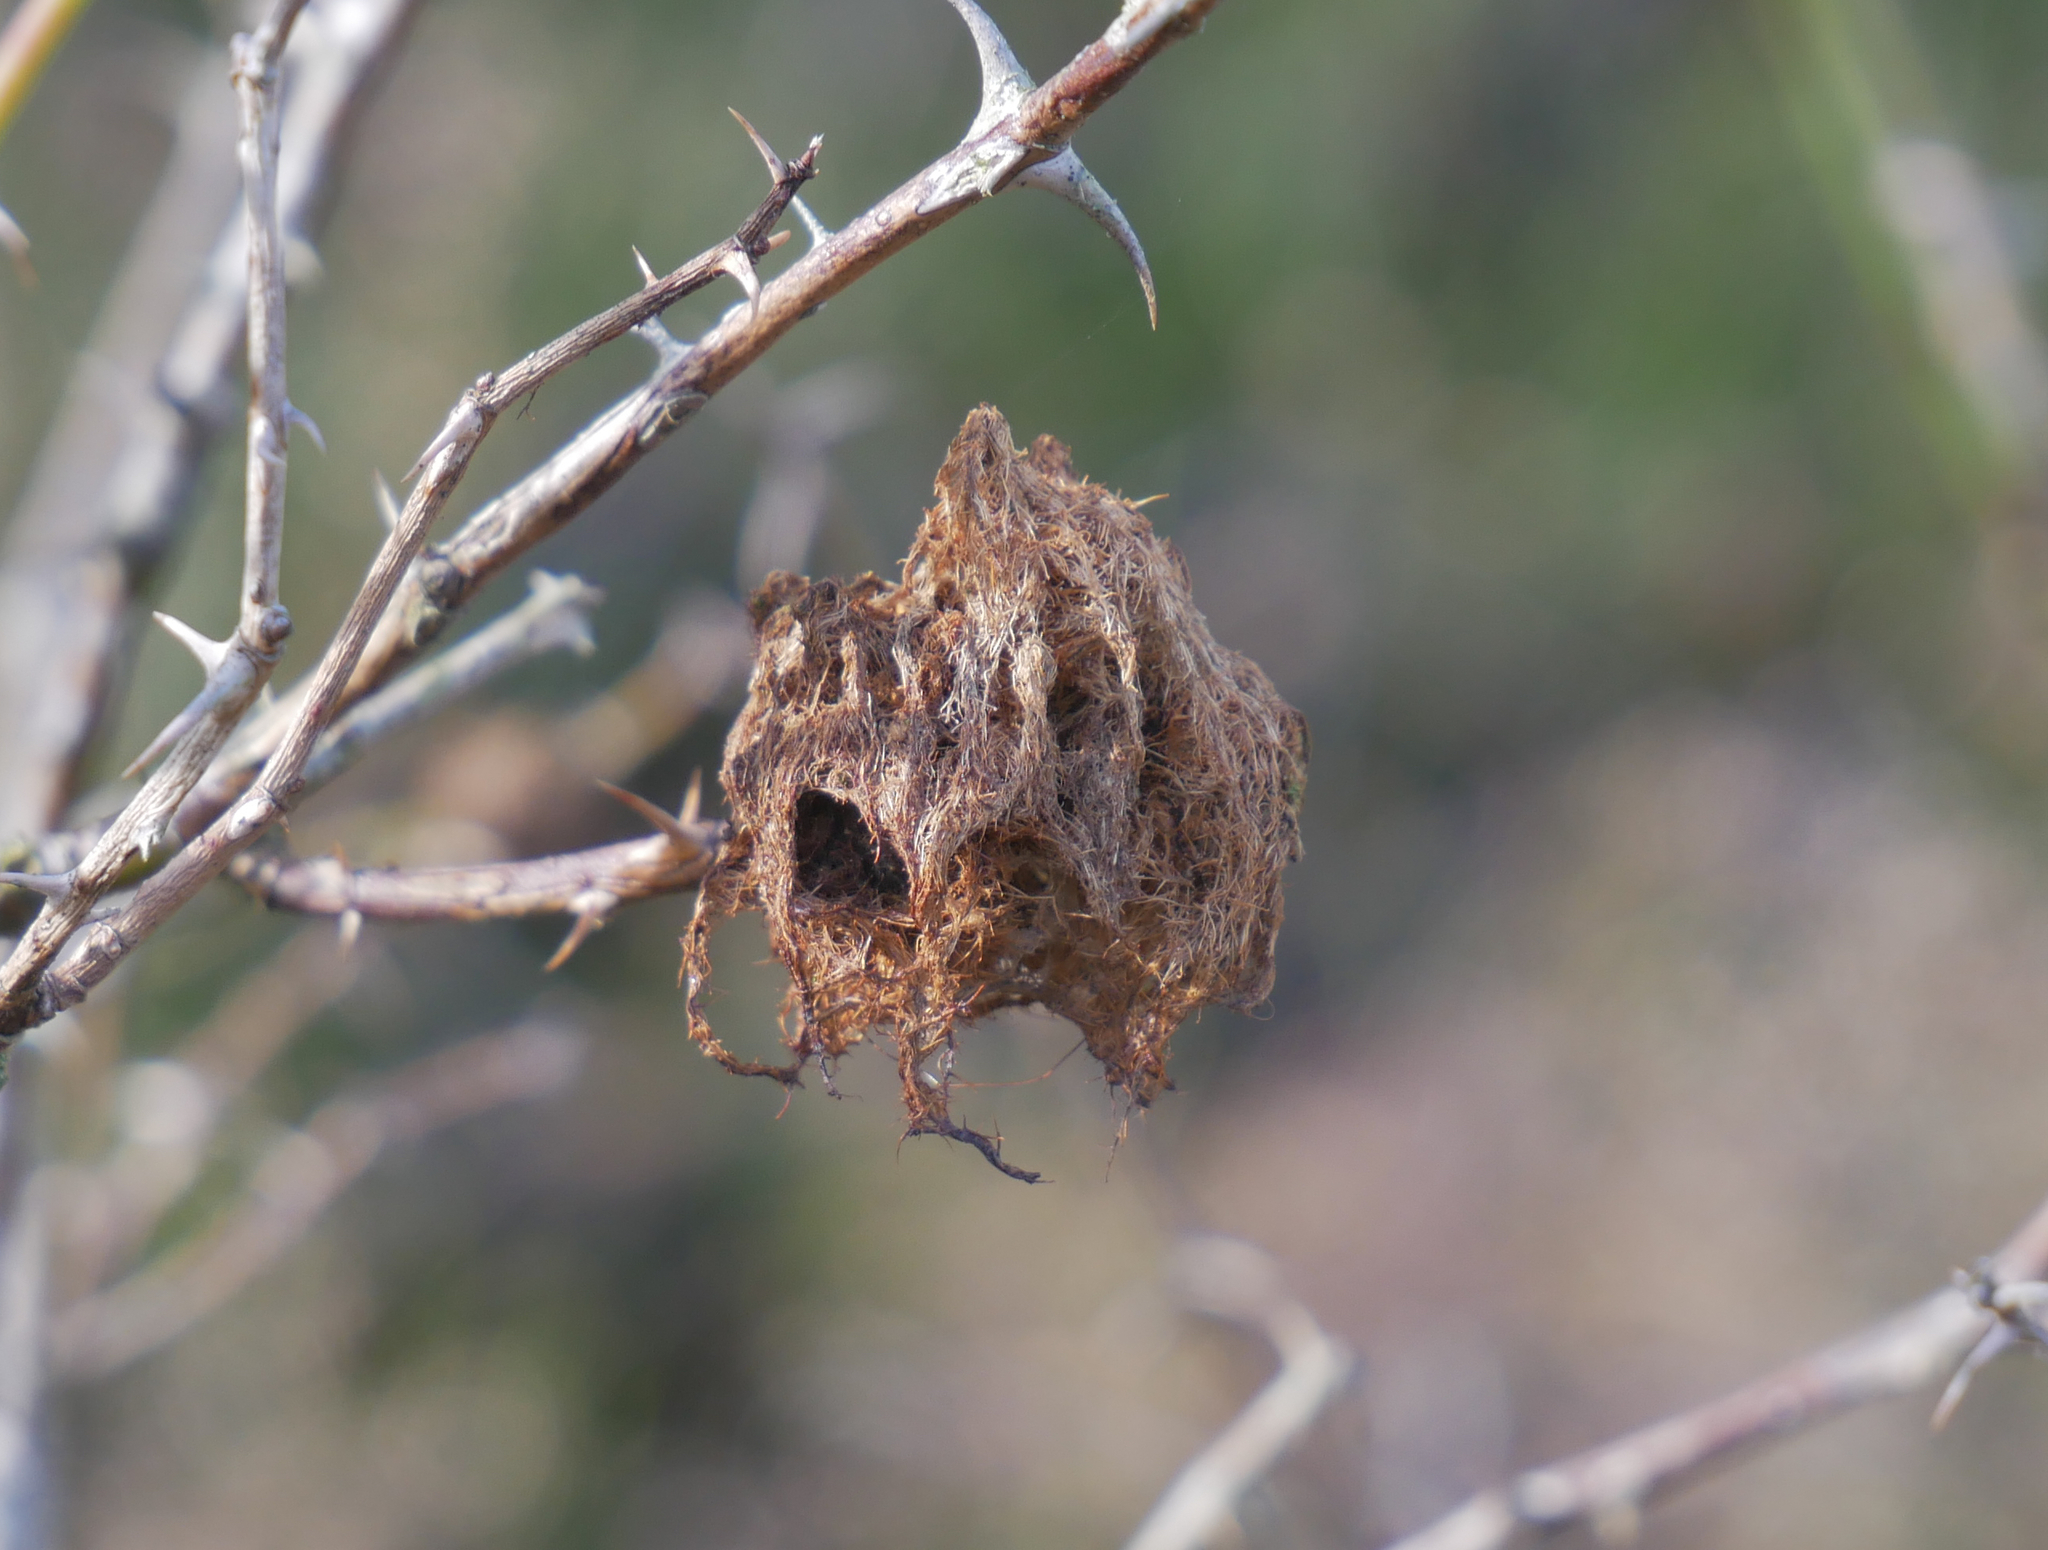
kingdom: Animalia
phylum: Arthropoda
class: Insecta
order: Hymenoptera
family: Cynipidae
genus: Diplolepis
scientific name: Diplolepis rosae
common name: Bedeguar gall
